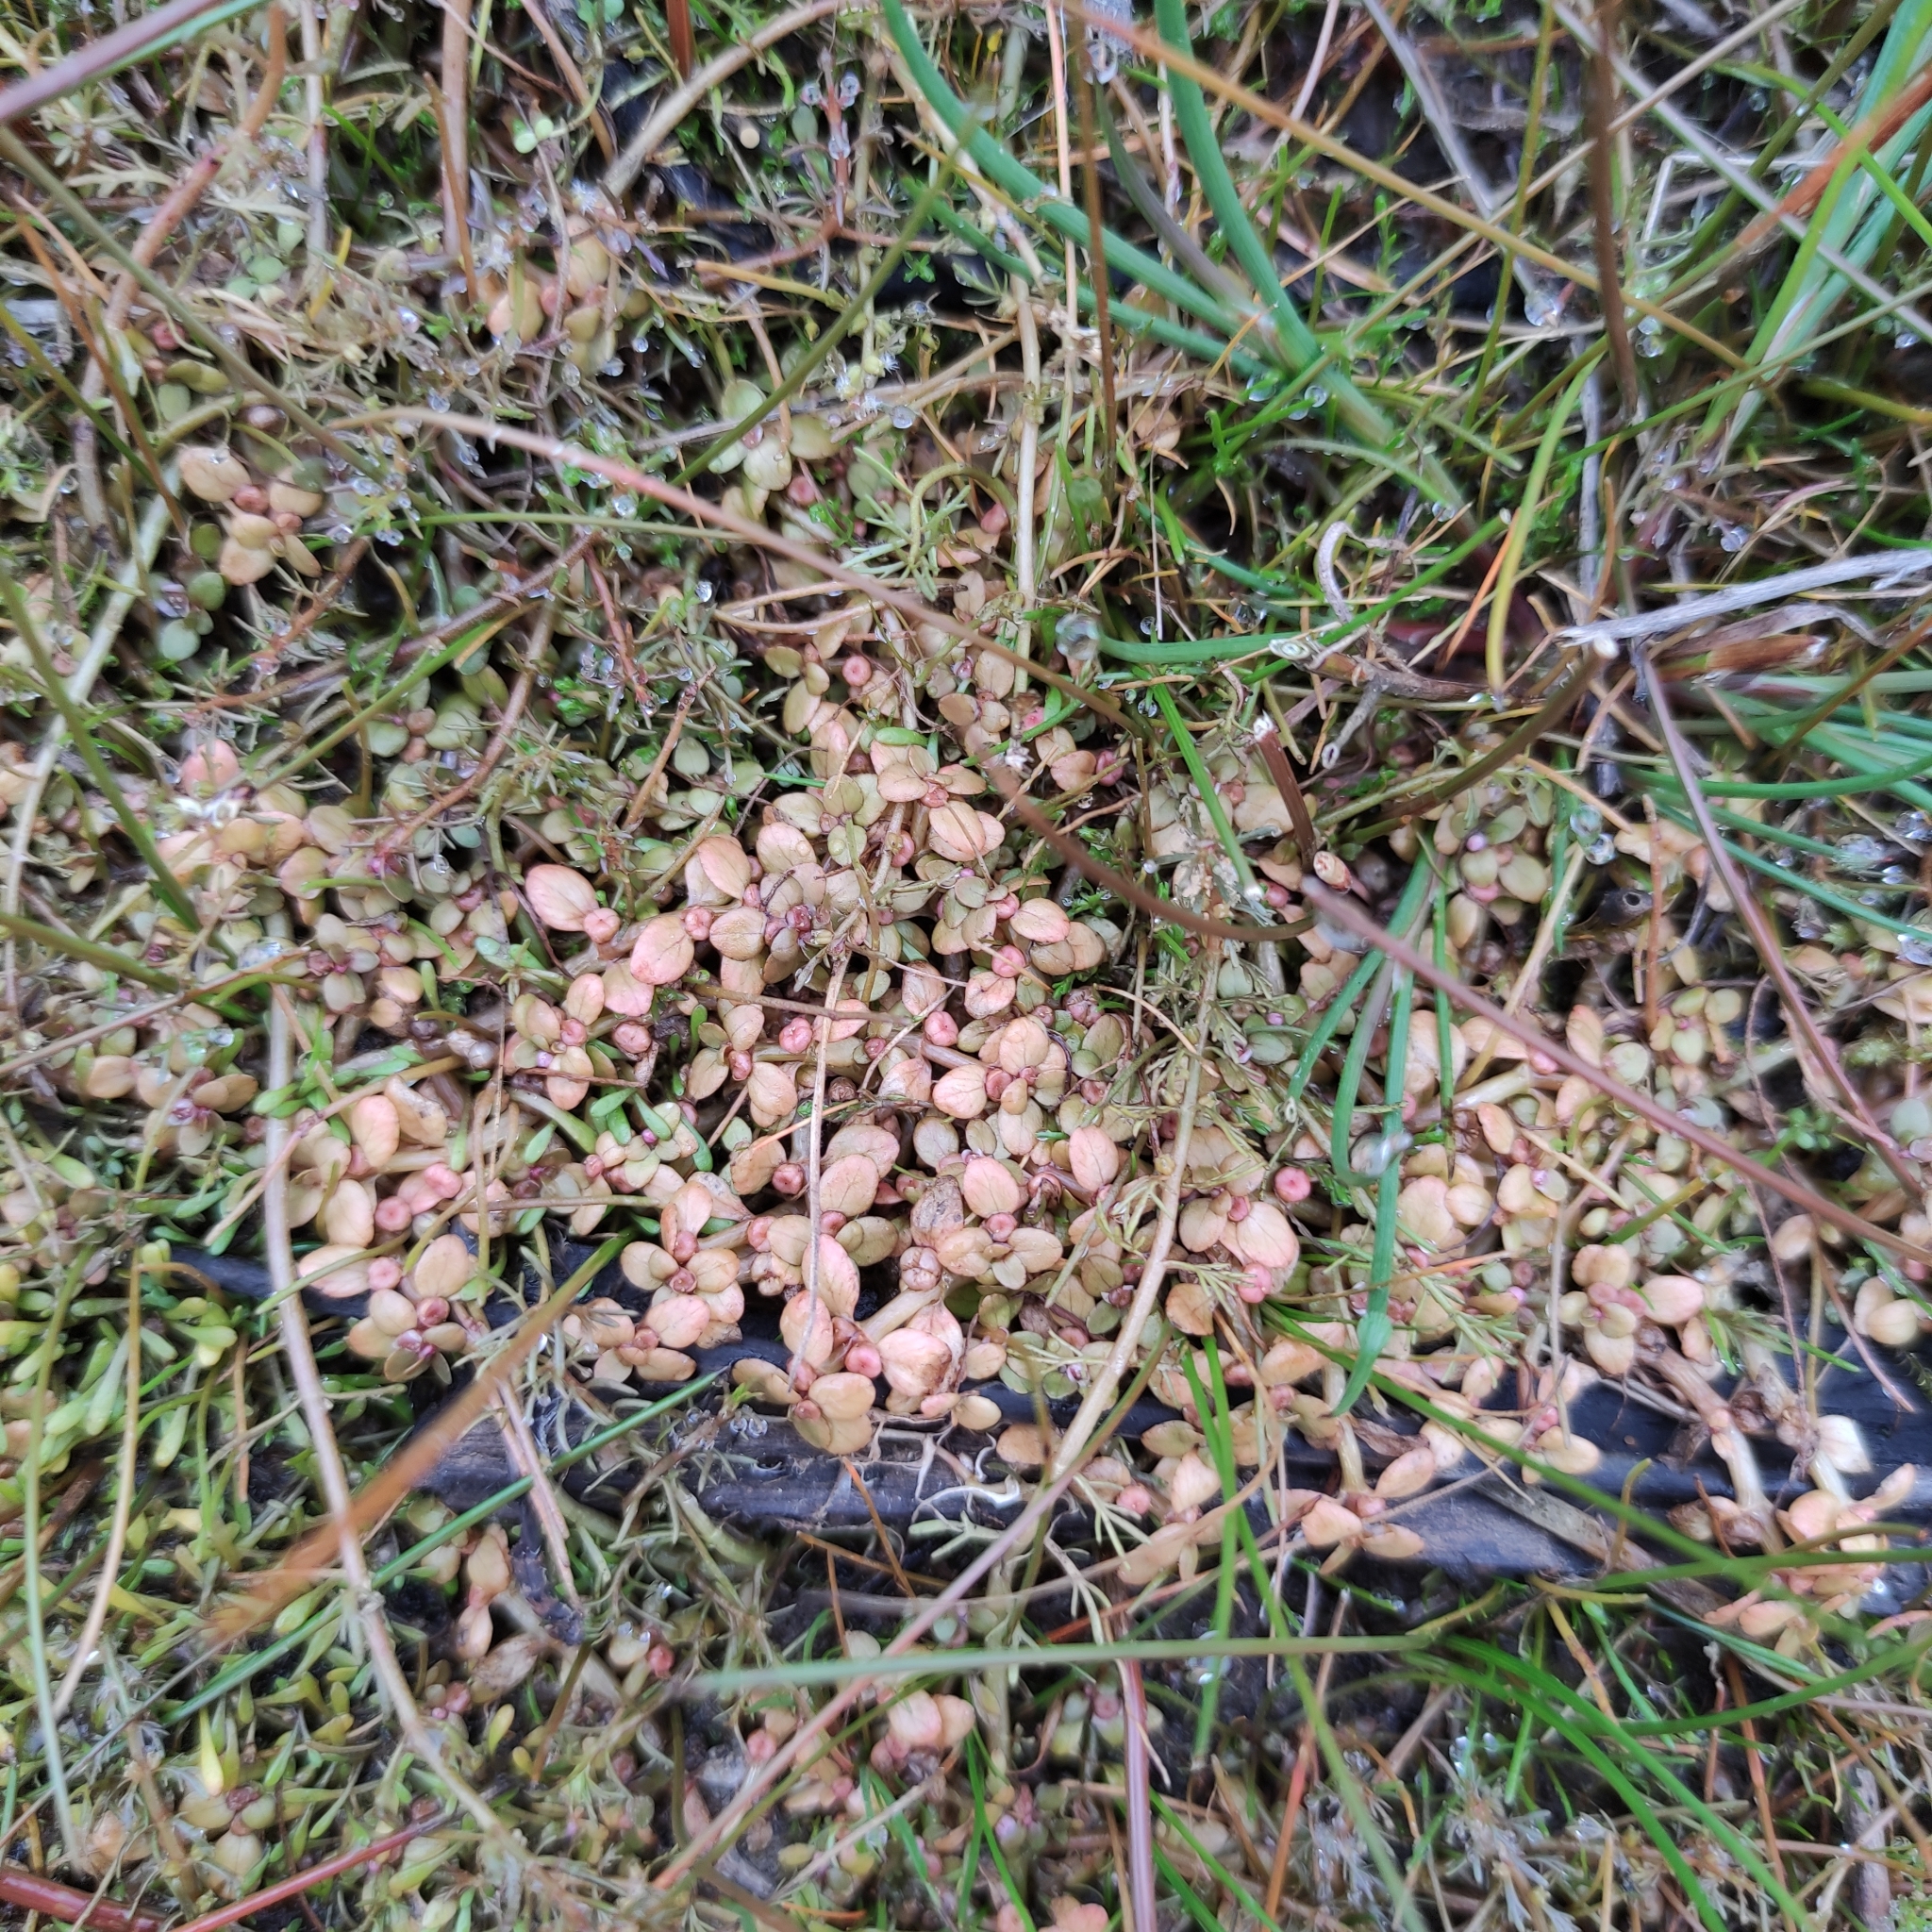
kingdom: Plantae
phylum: Tracheophyta
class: Magnoliopsida
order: Malpighiales
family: Elatinaceae
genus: Elatine
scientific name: Elatine gratioloides
